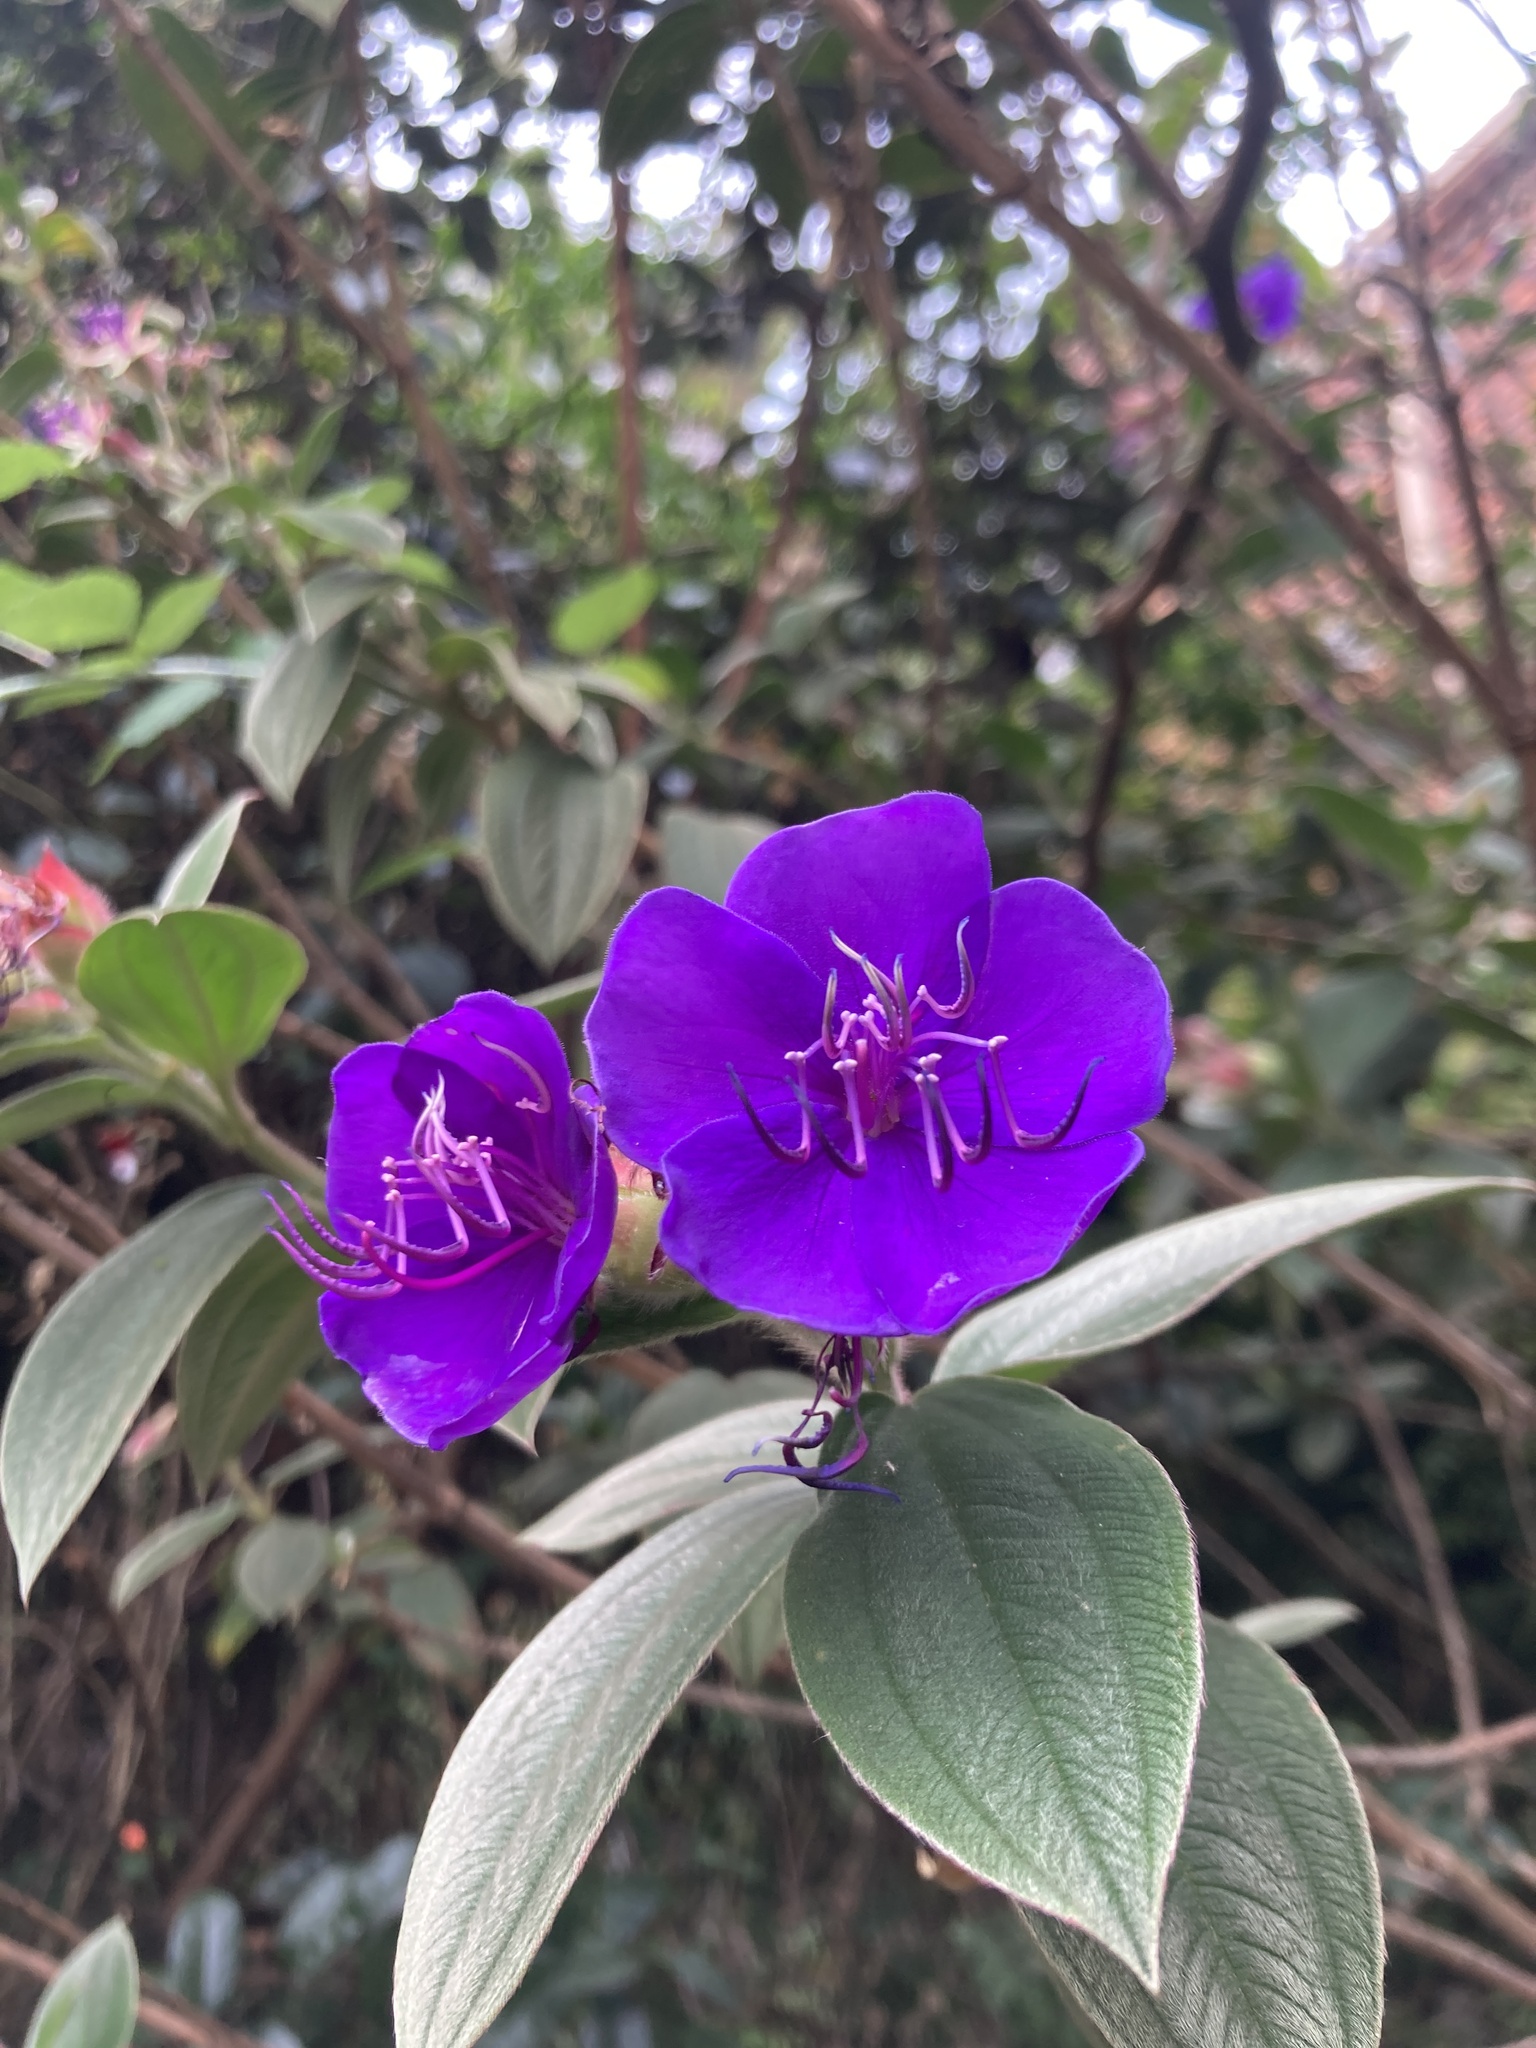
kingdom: Plantae
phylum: Tracheophyta
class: Magnoliopsida
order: Myrtales
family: Melastomataceae
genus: Pleroma
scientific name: Pleroma urvilleanum
